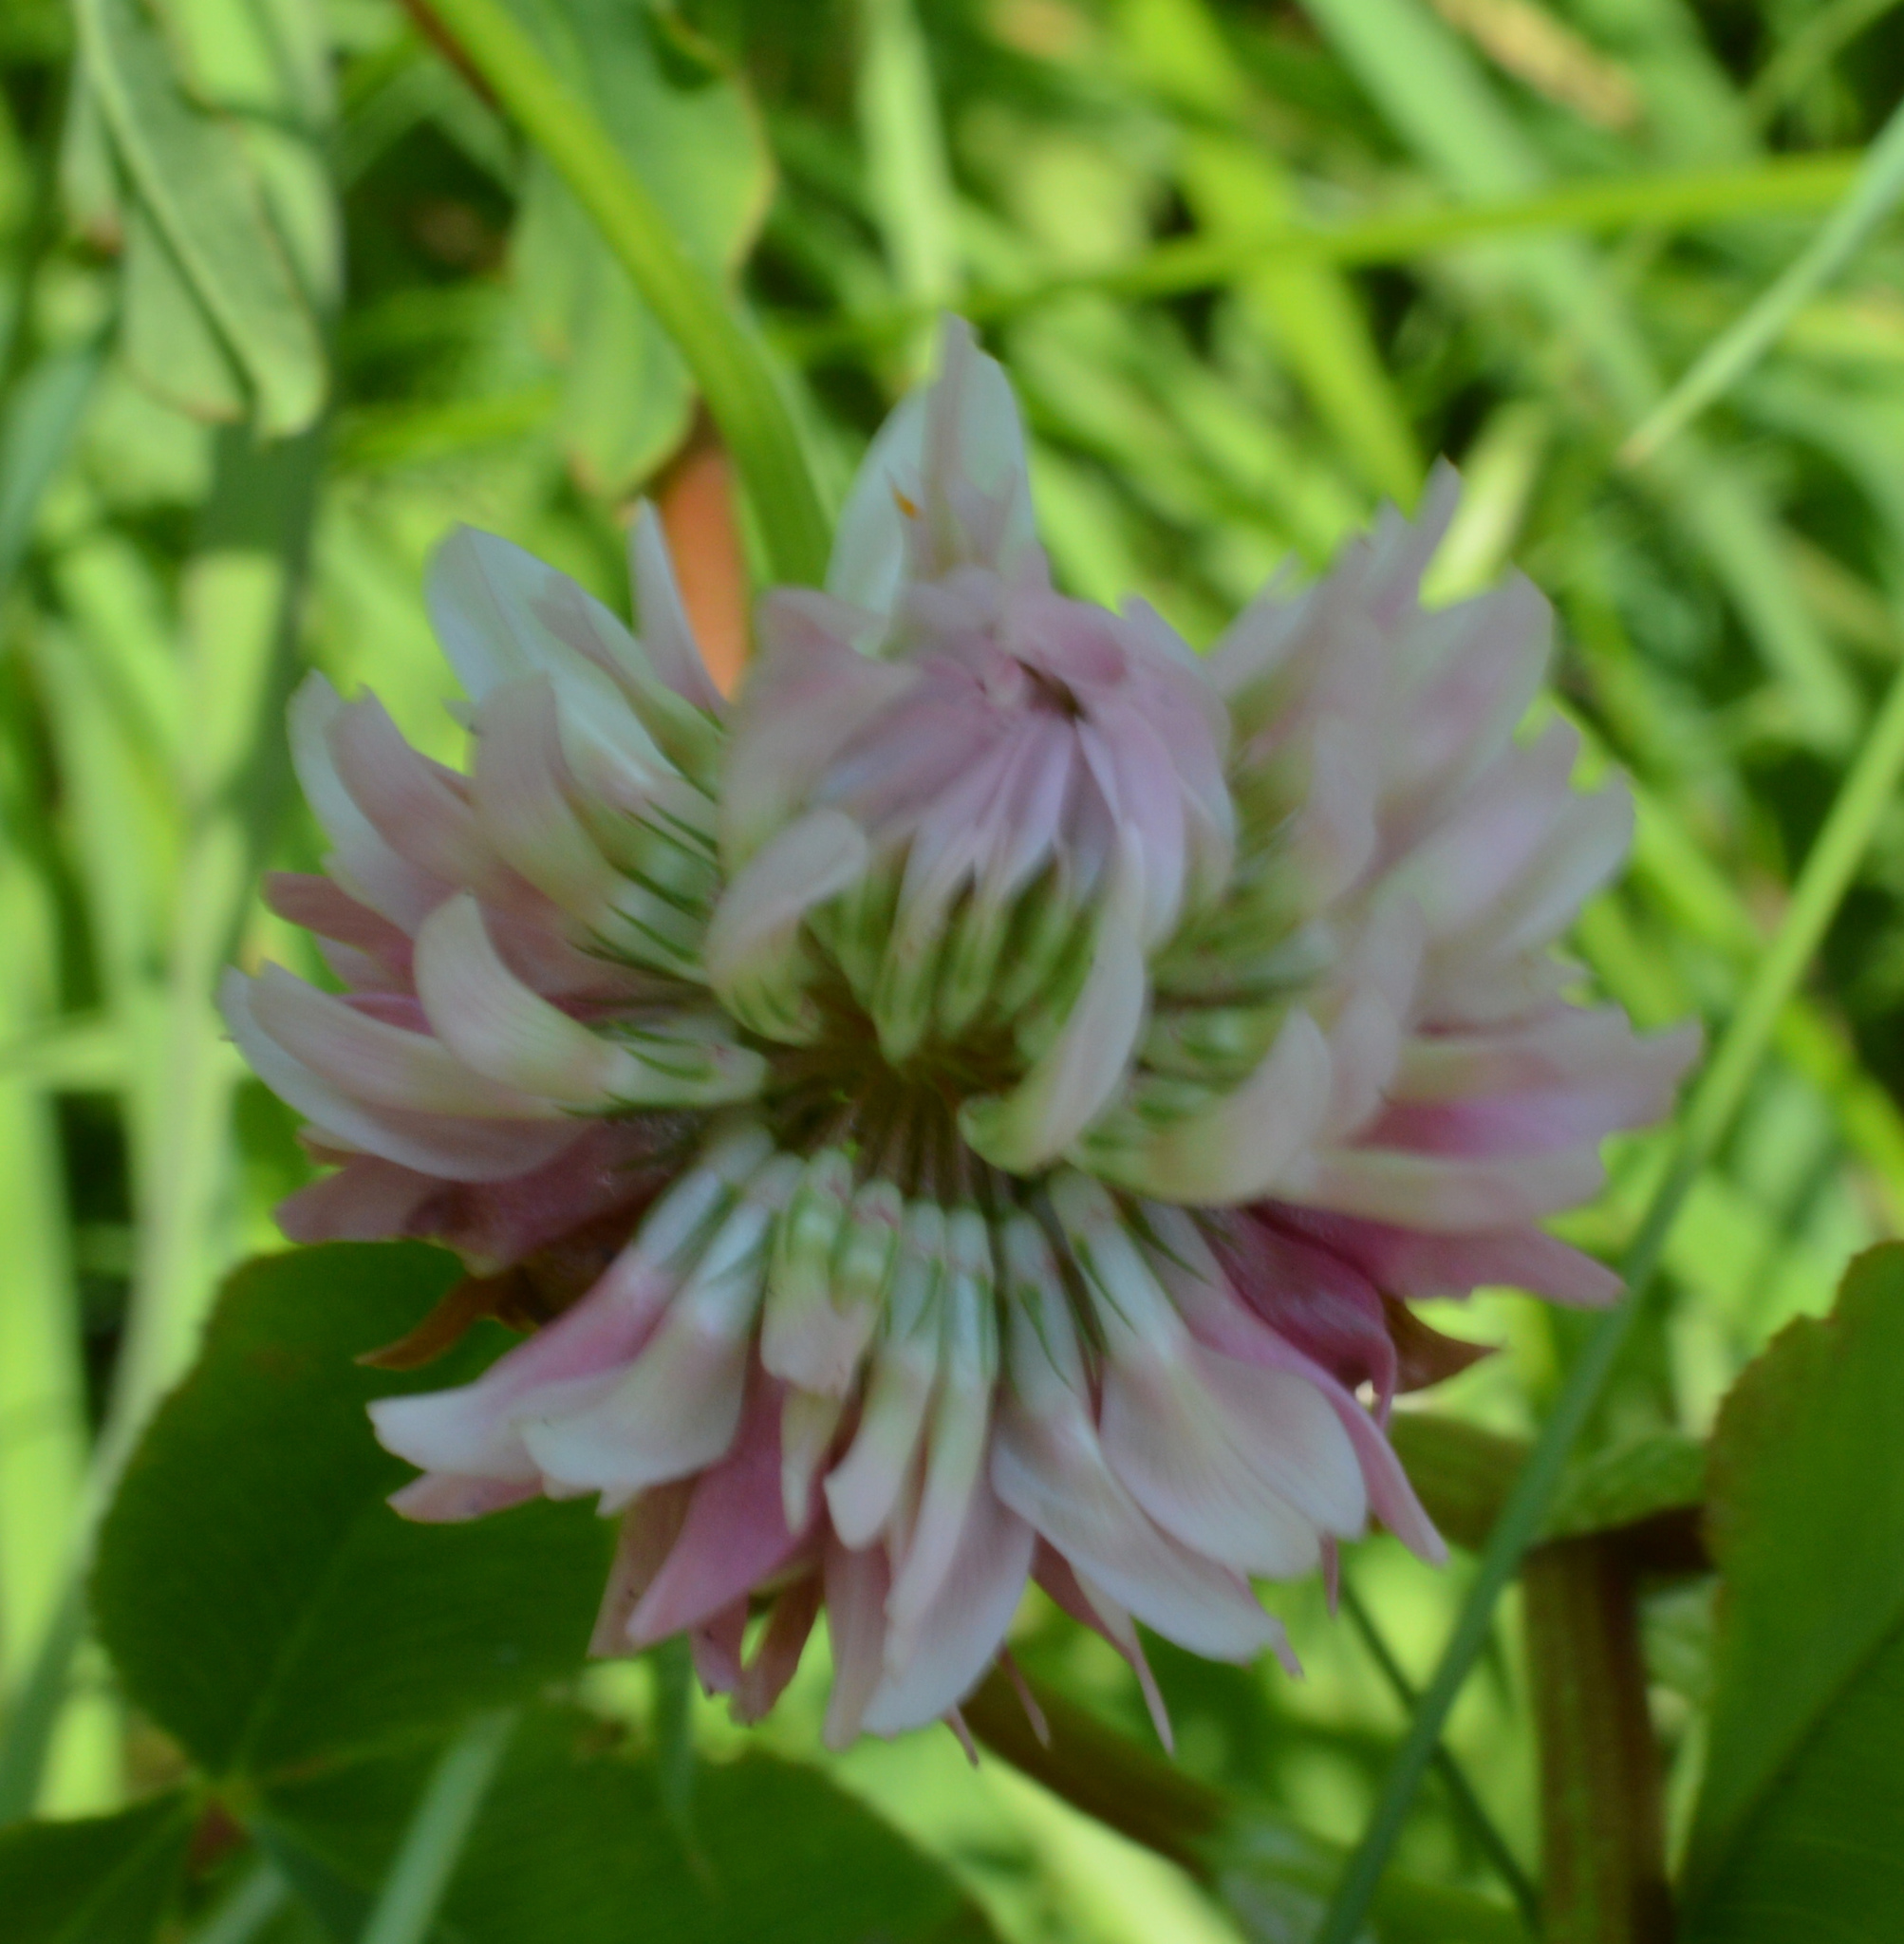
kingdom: Plantae
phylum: Tracheophyta
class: Magnoliopsida
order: Fabales
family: Fabaceae
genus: Trifolium
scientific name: Trifolium hybridum
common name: Alsike clover
